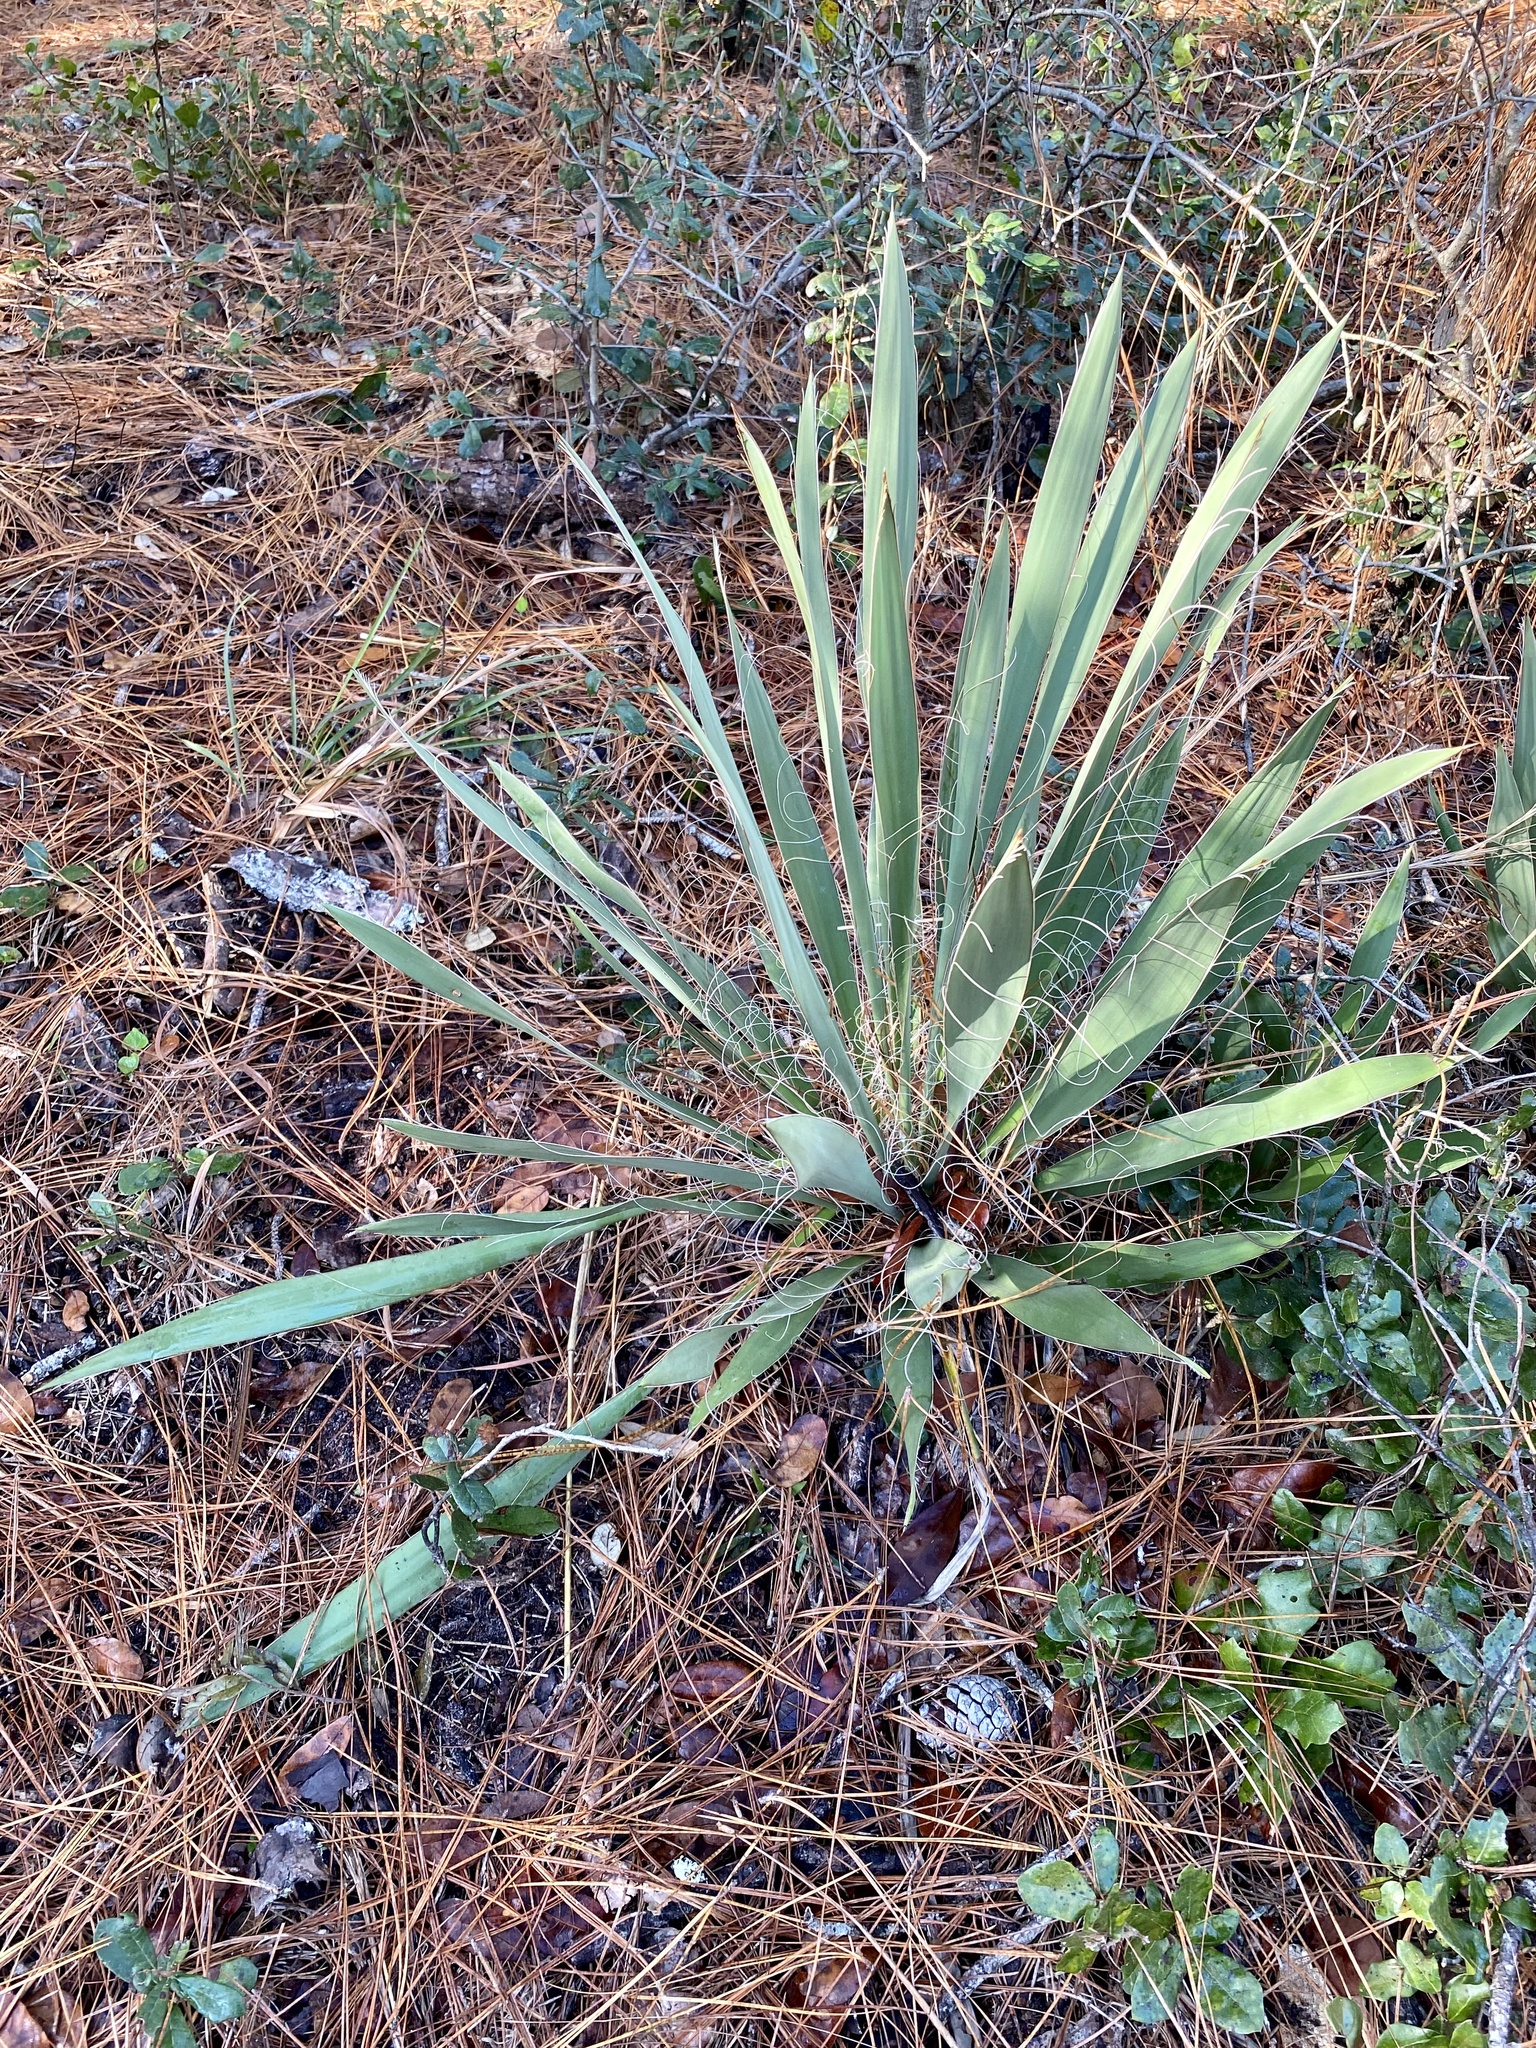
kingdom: Plantae
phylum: Tracheophyta
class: Liliopsida
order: Asparagales
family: Asparagaceae
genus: Yucca
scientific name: Yucca filamentosa
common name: Adam's-needle
